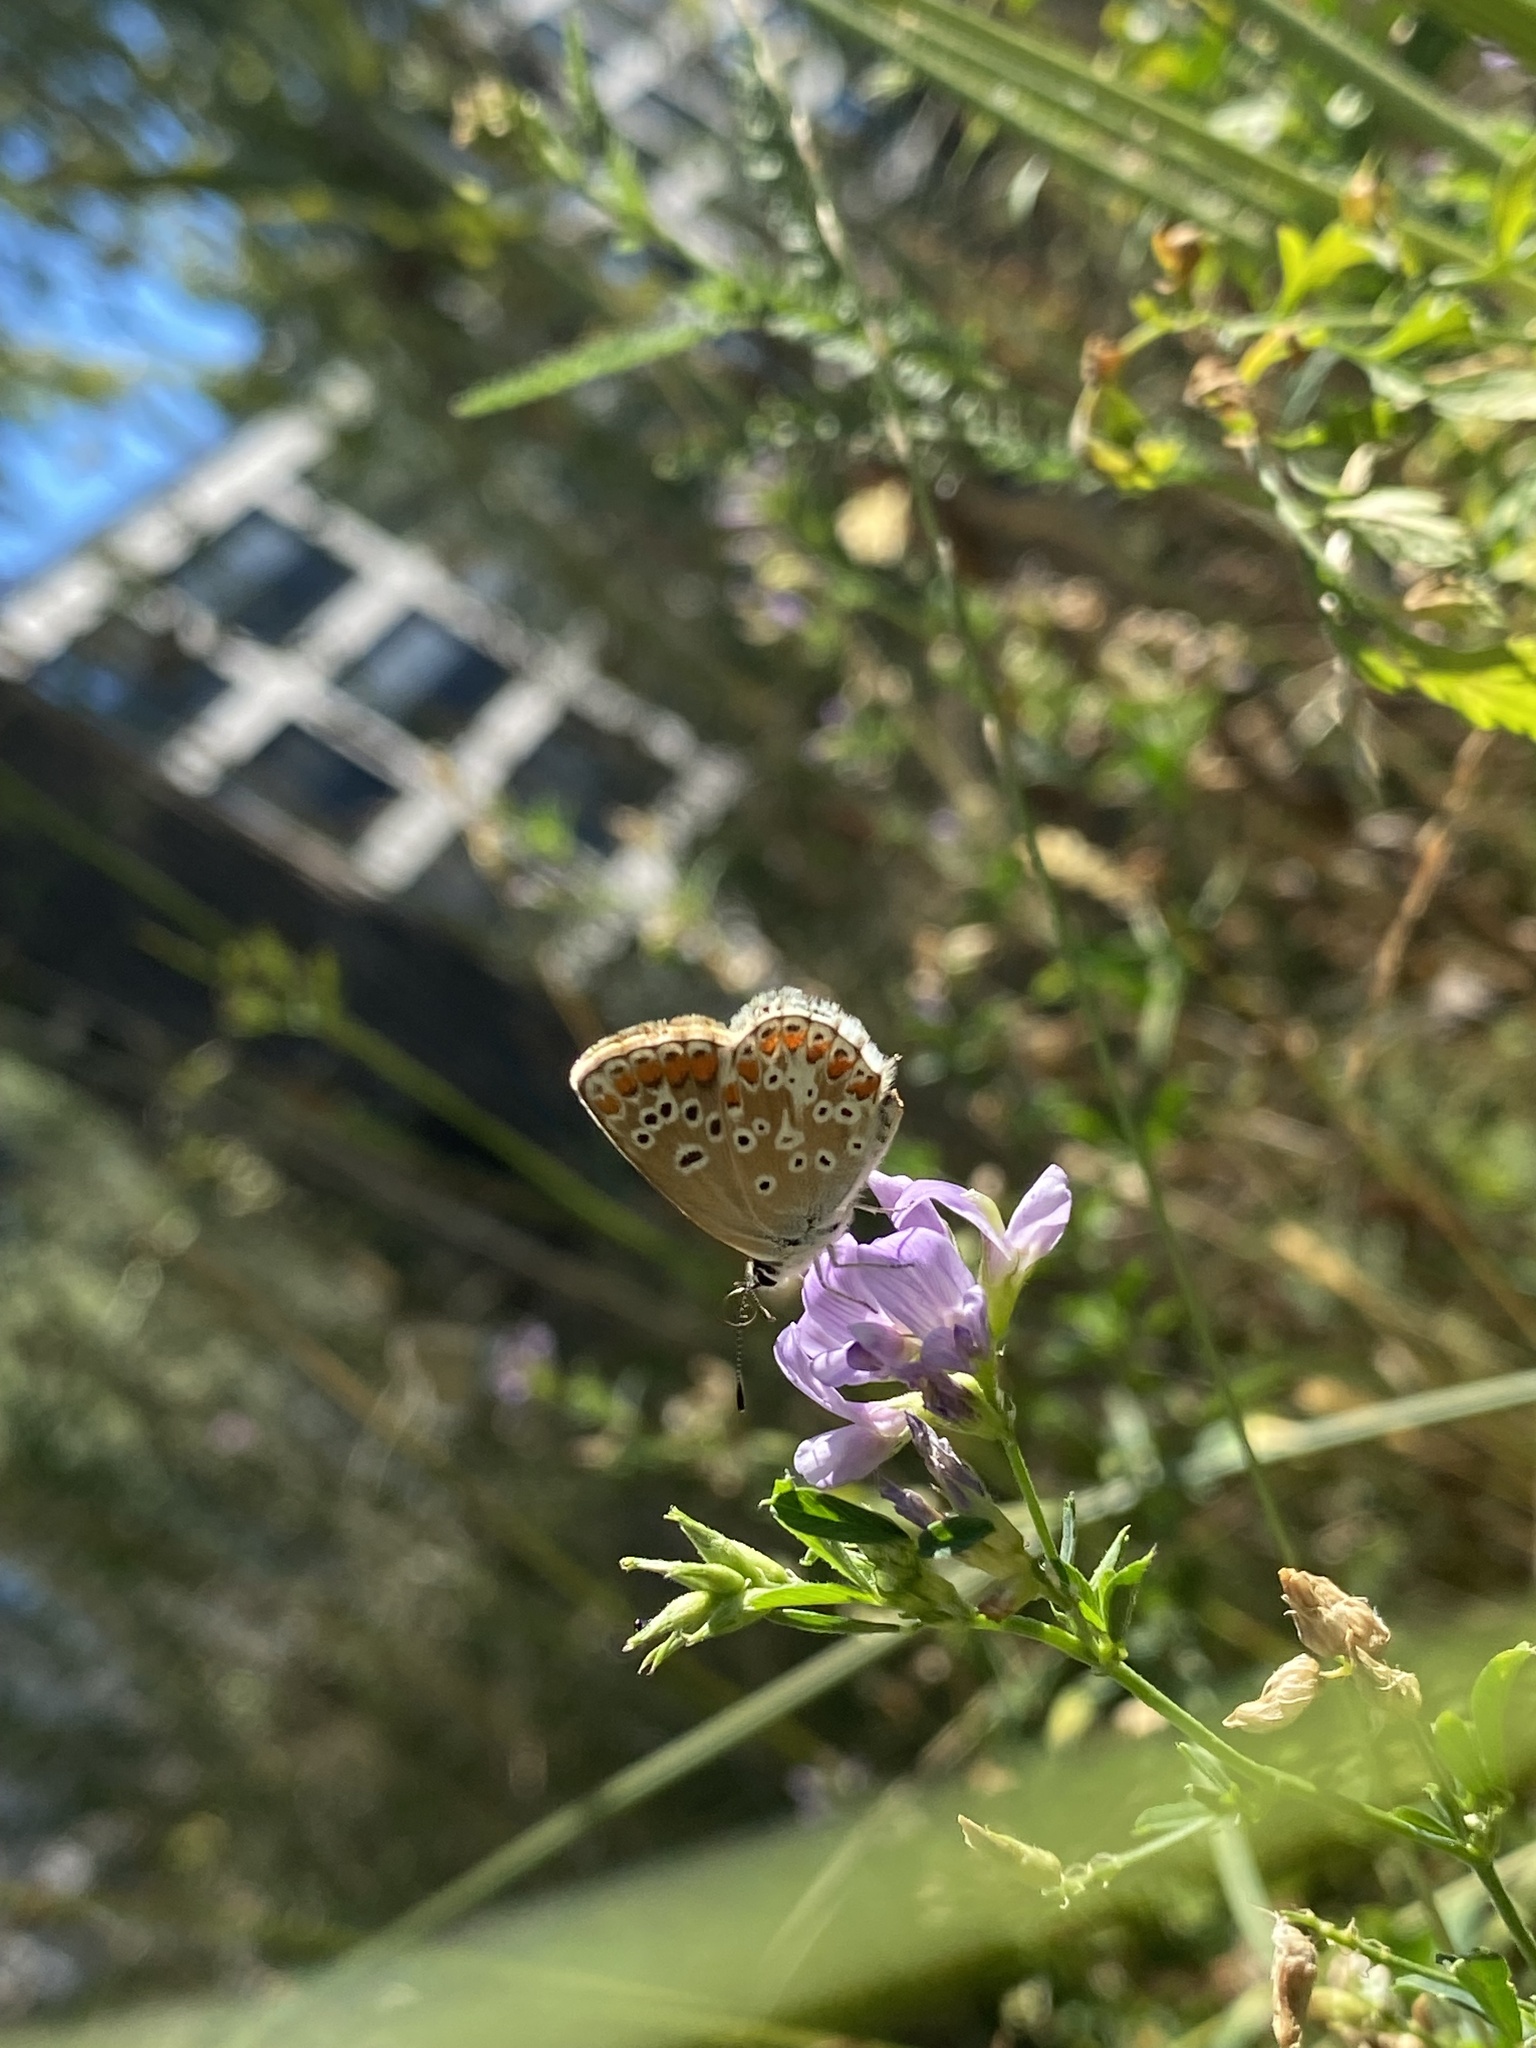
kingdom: Animalia
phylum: Arthropoda
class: Insecta
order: Lepidoptera
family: Lycaenidae
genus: Aricia
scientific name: Aricia agestis
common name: Brown argus
